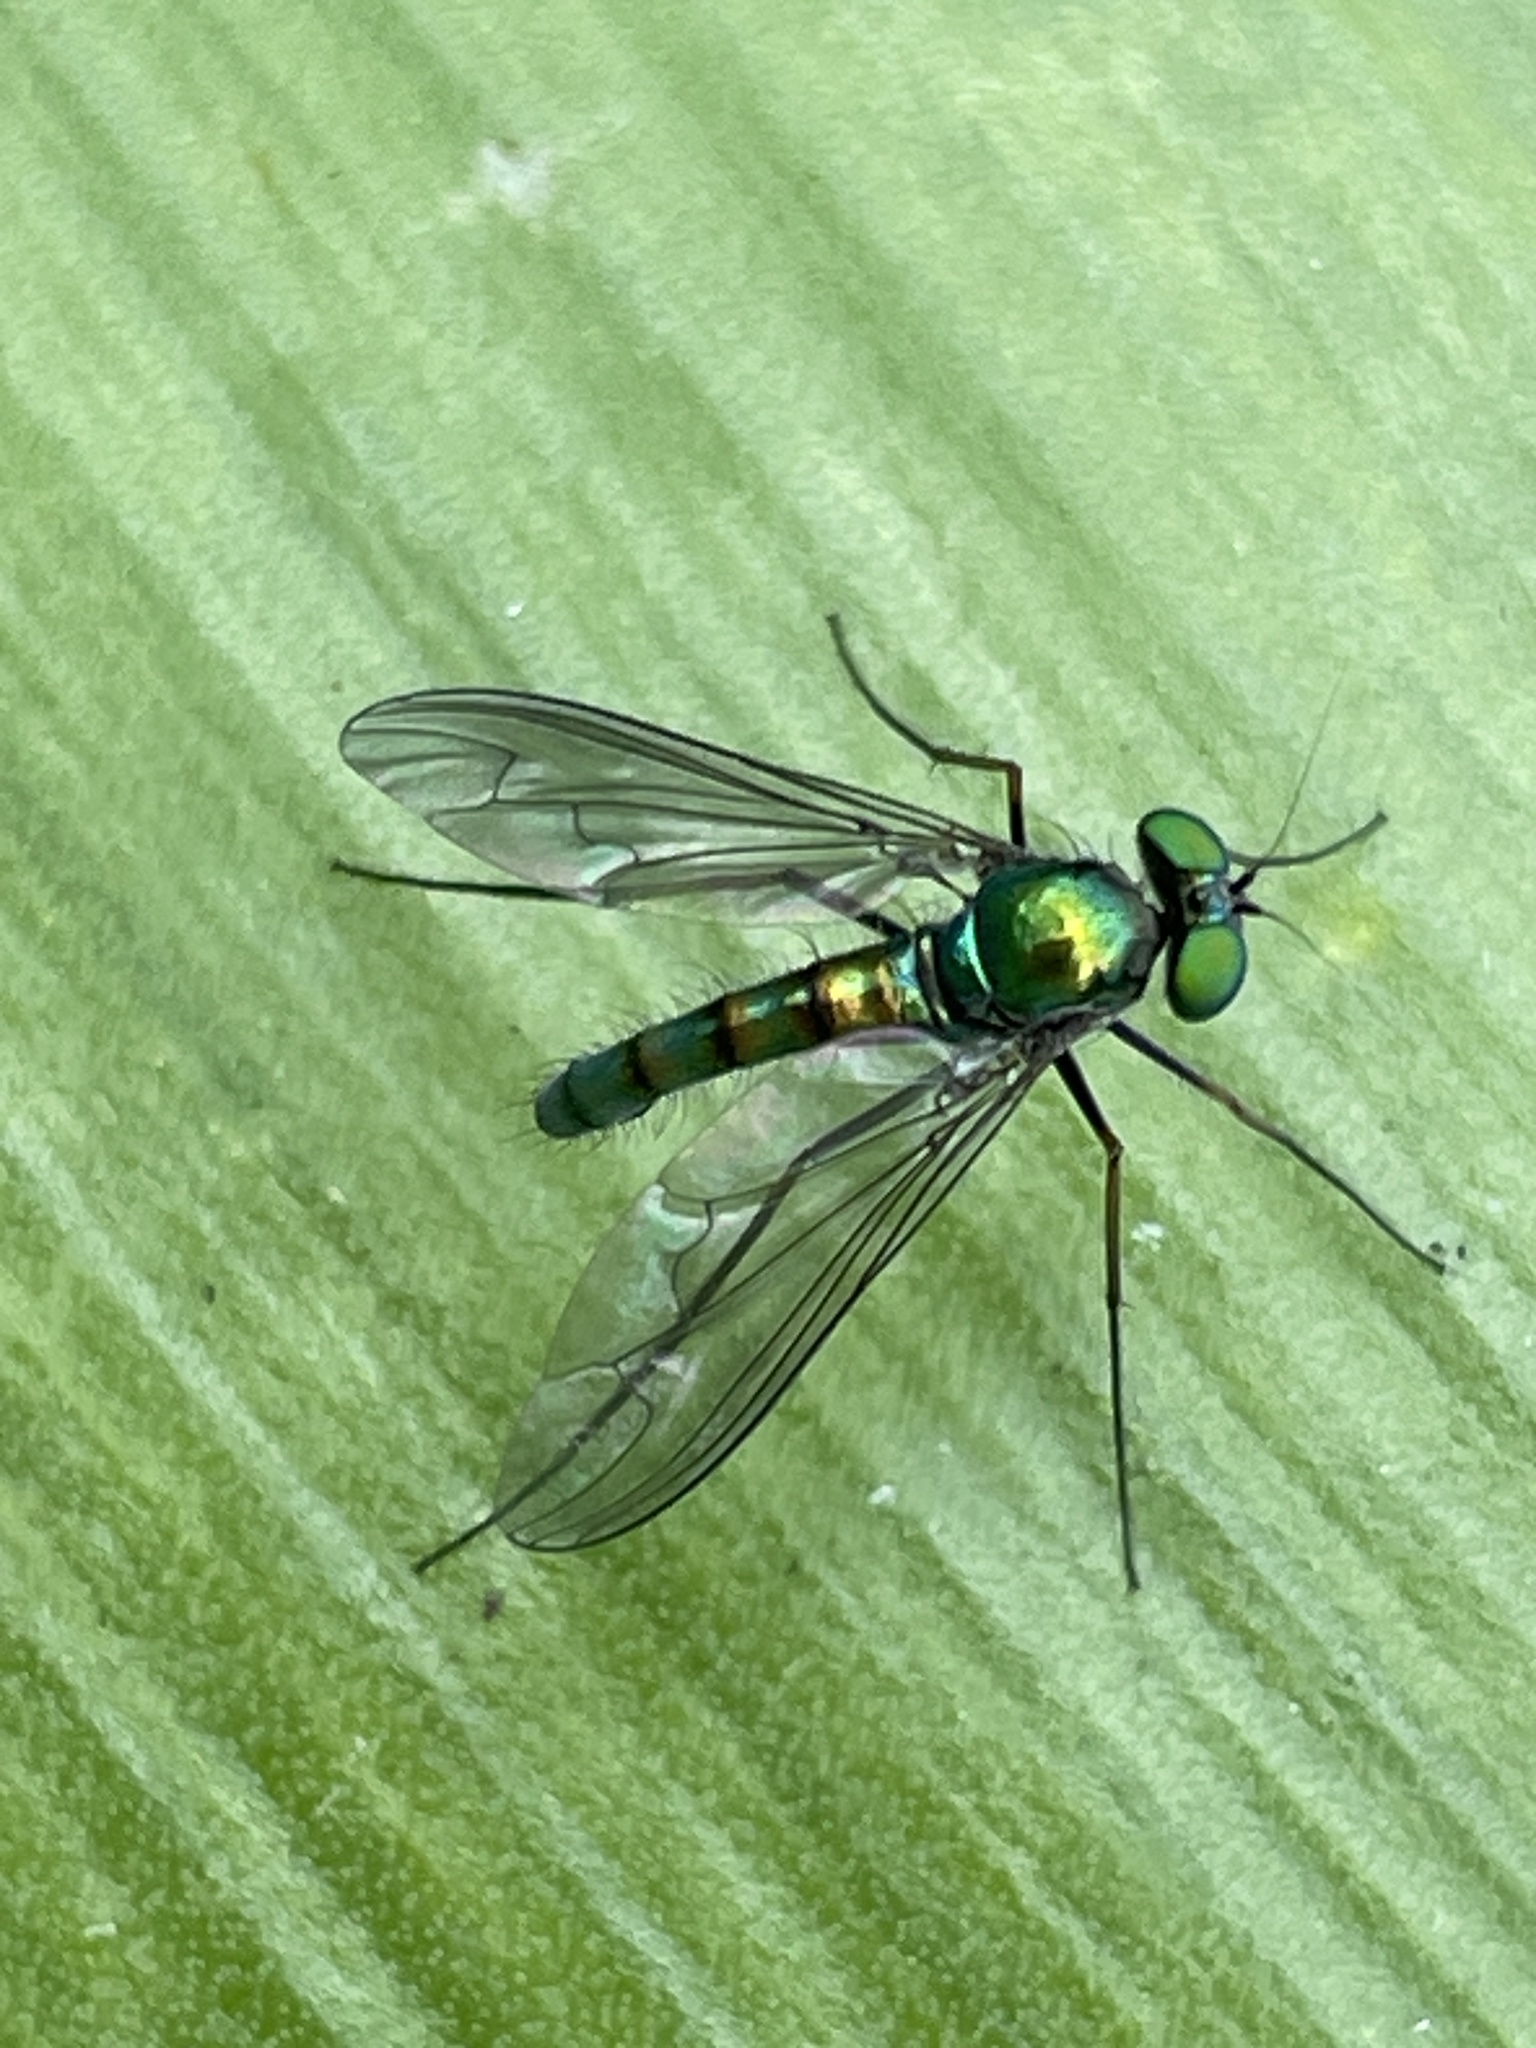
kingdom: Animalia
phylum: Arthropoda
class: Insecta
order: Diptera
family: Dolichopodidae
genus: Heteropsilopus
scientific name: Heteropsilopus cingulipes
